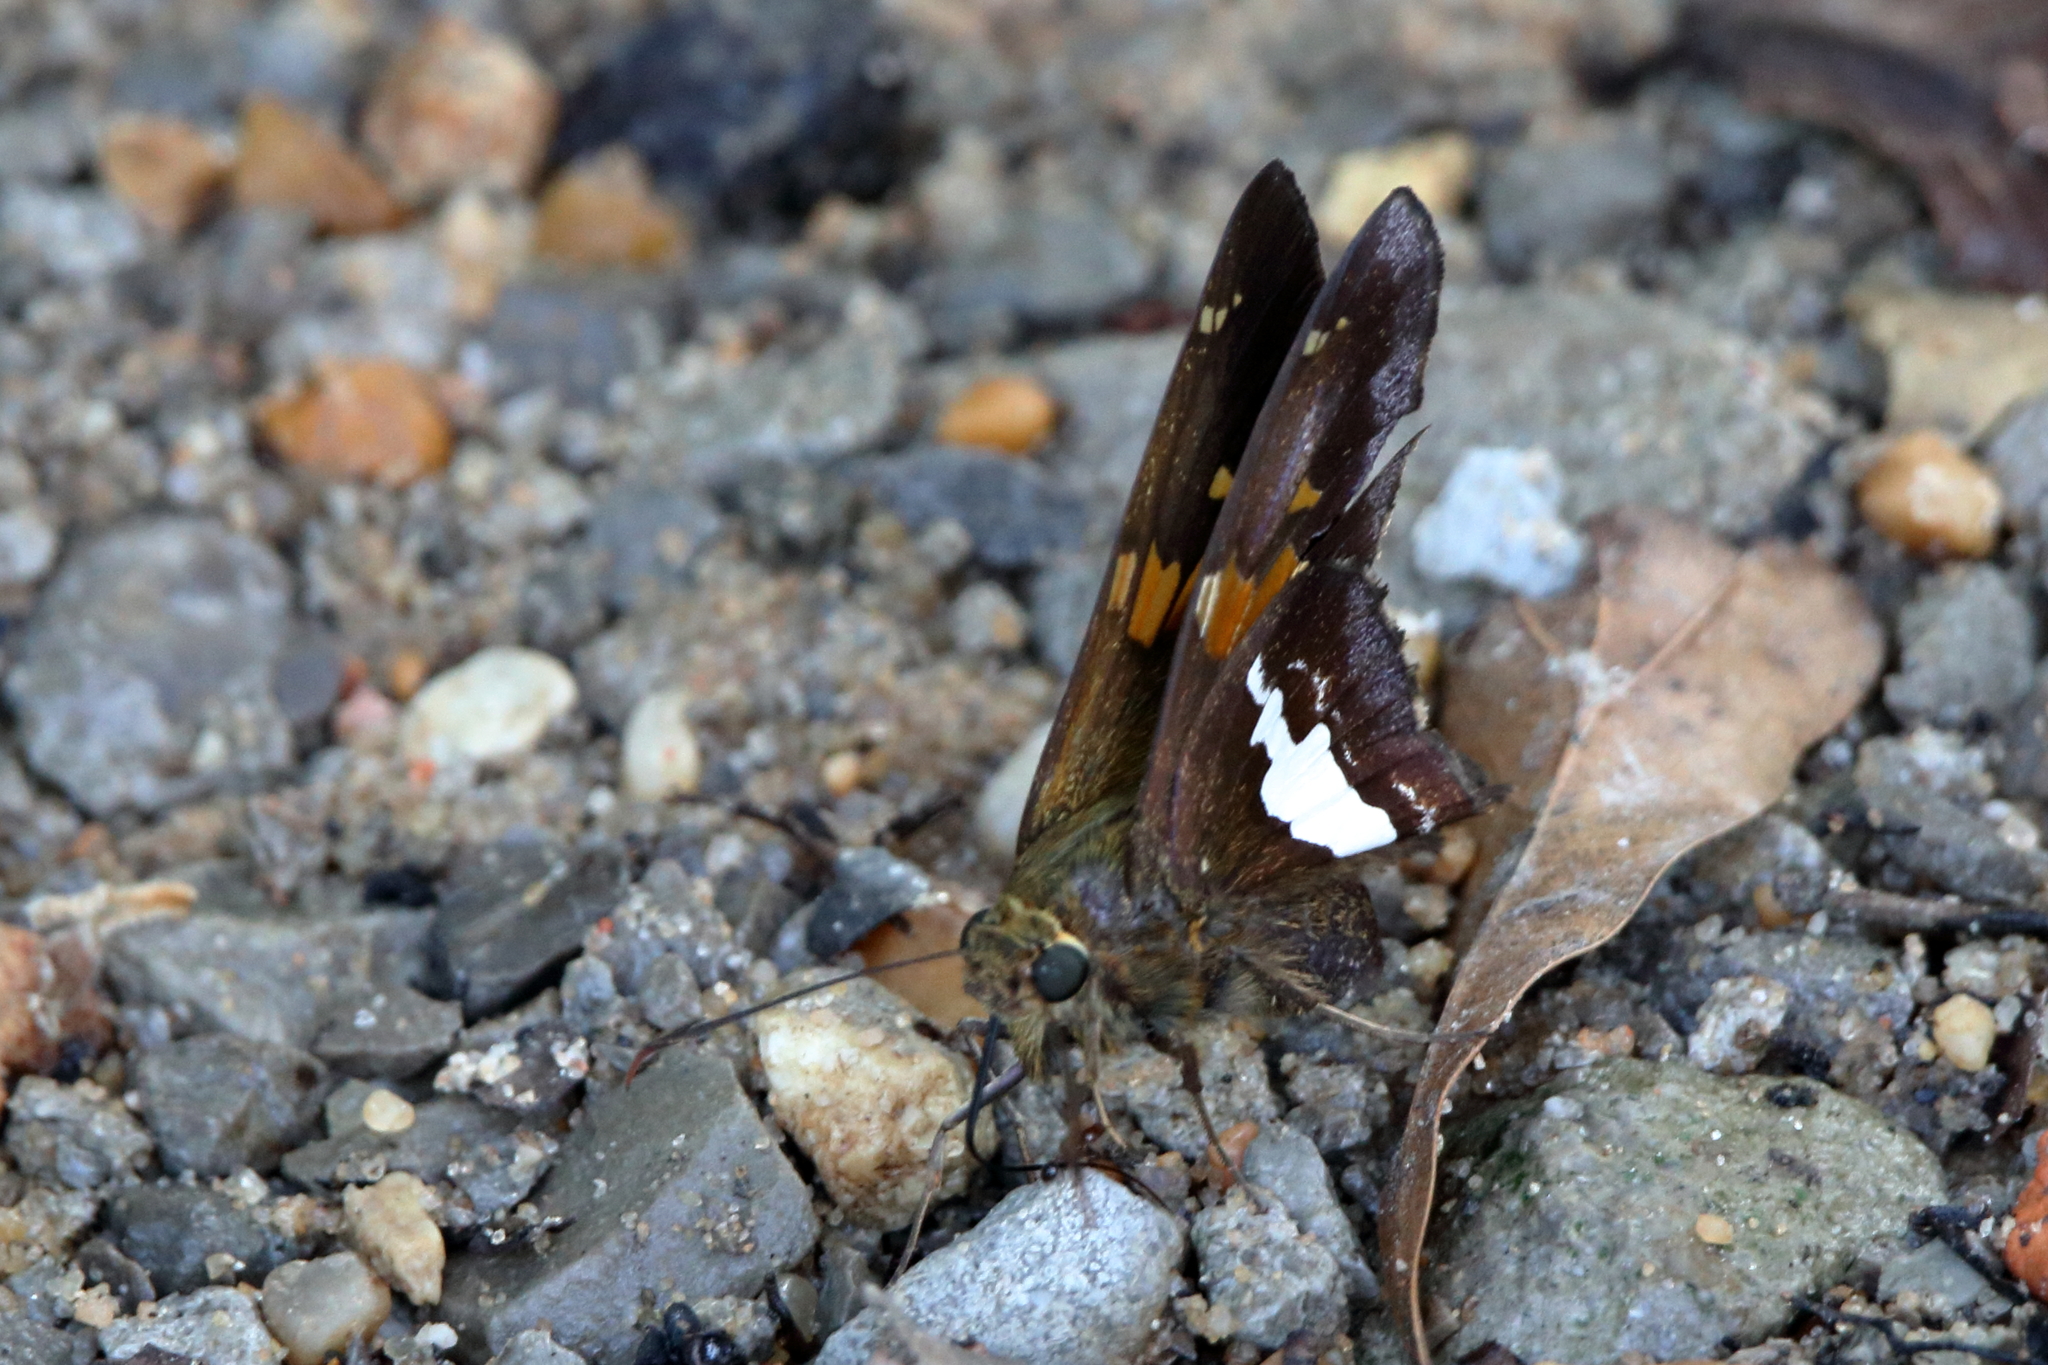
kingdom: Animalia
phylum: Arthropoda
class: Insecta
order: Lepidoptera
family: Hesperiidae
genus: Epargyreus
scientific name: Epargyreus clarus
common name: Silver-spotted skipper
